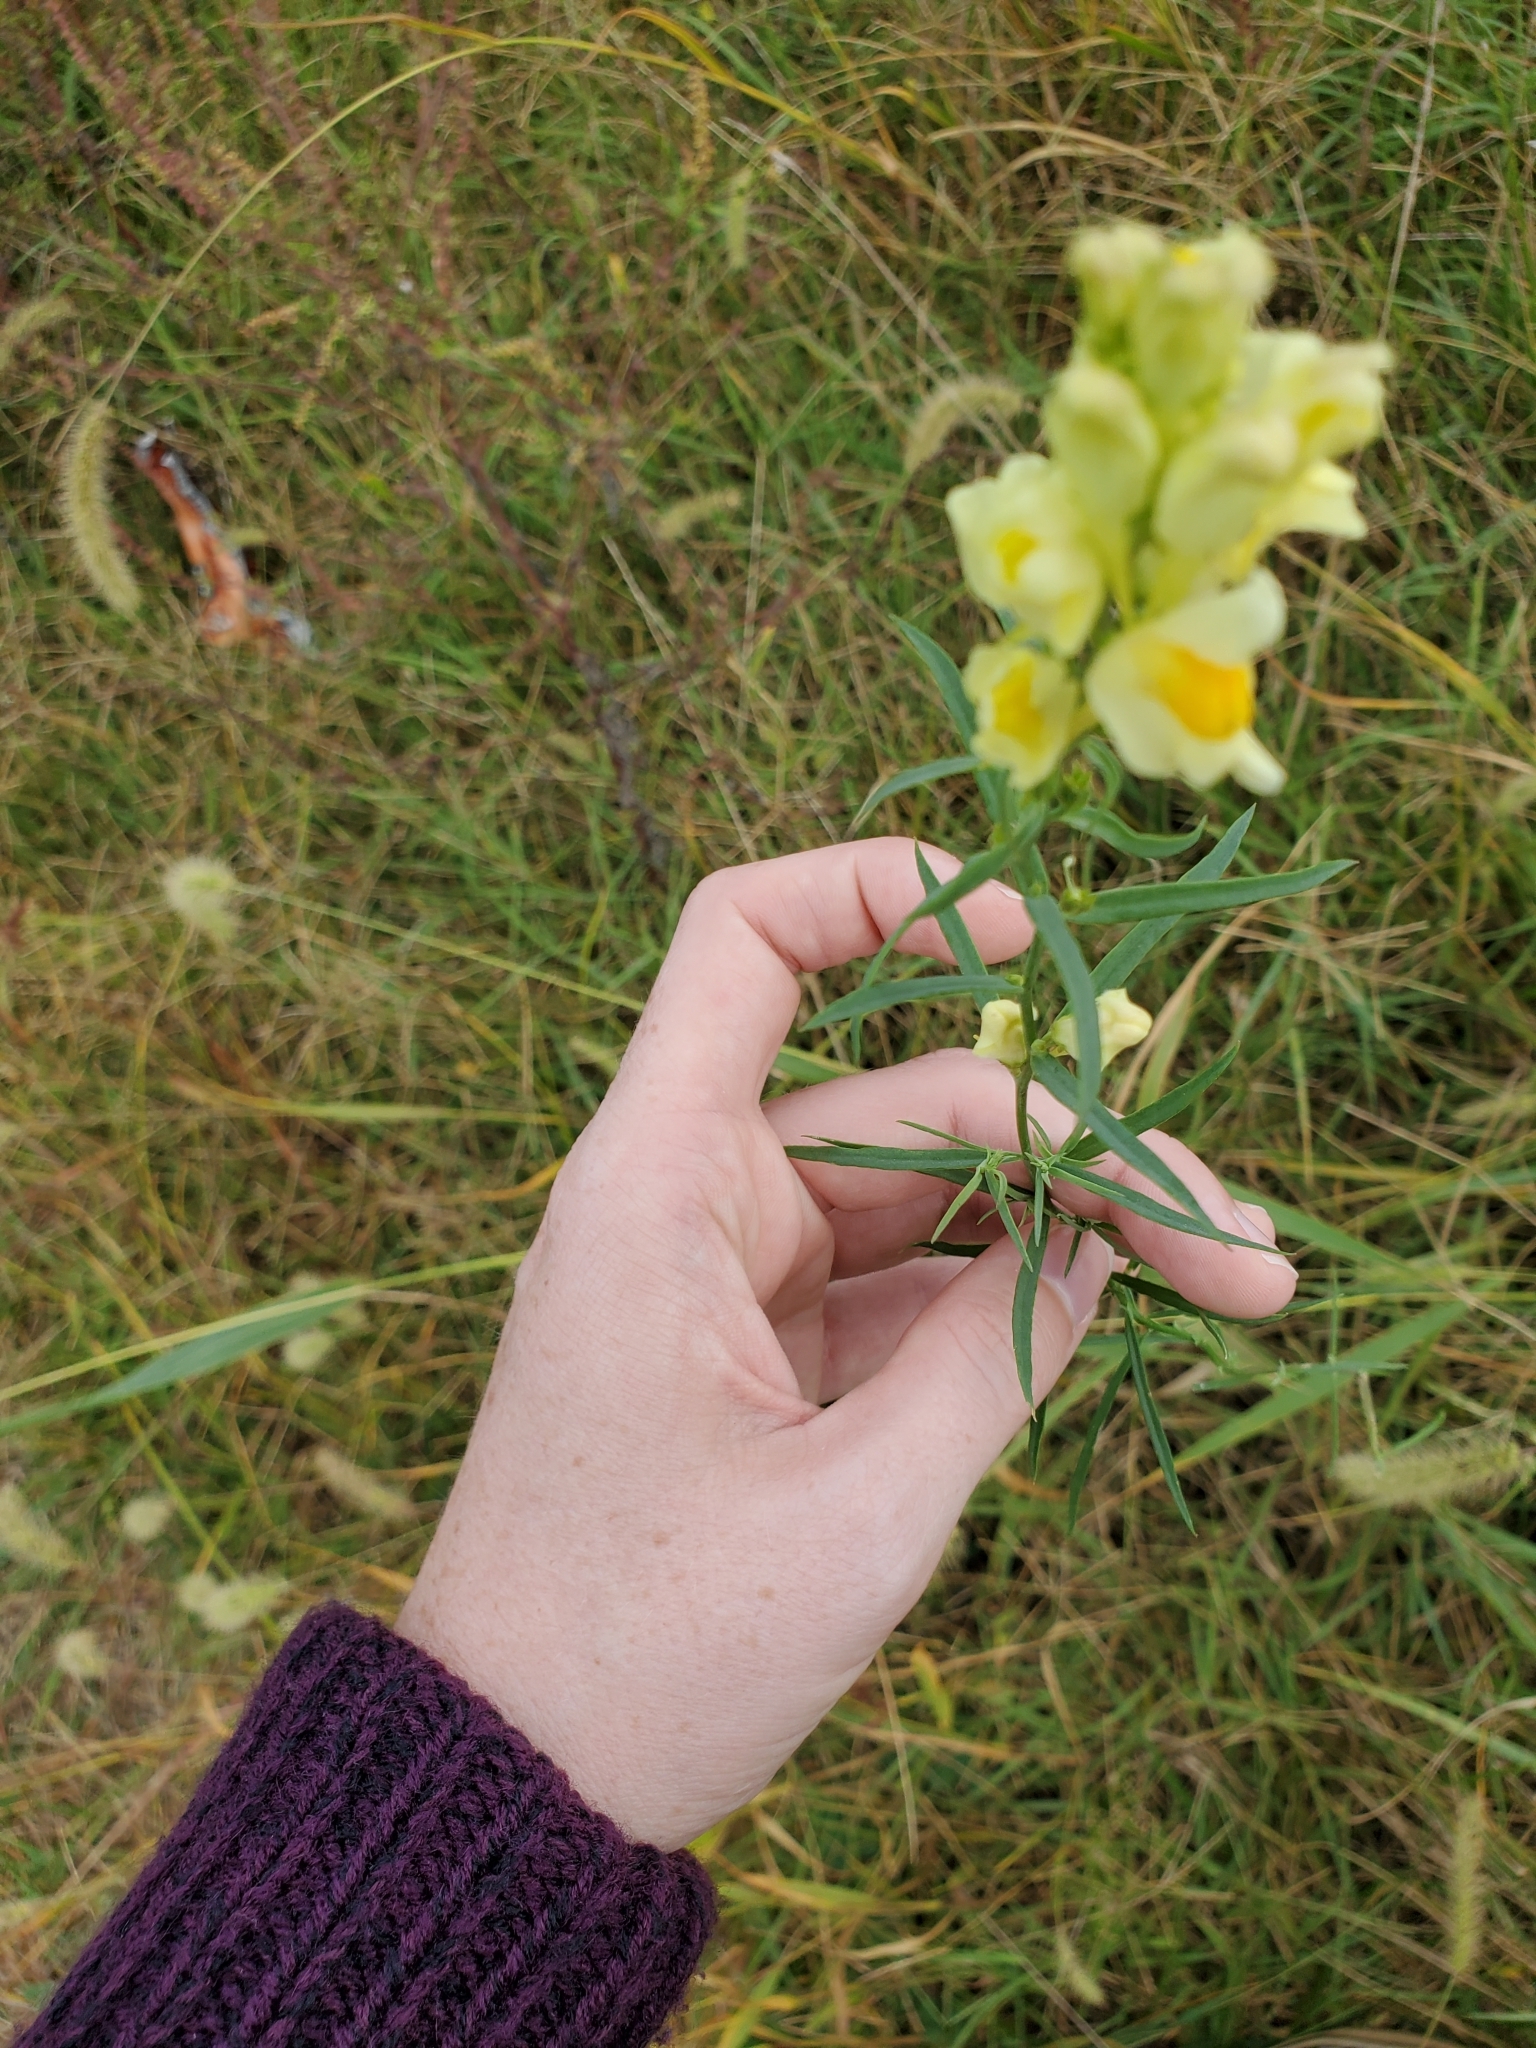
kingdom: Plantae
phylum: Tracheophyta
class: Magnoliopsida
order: Lamiales
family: Plantaginaceae
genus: Linaria
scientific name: Linaria vulgaris
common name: Butter and eggs
